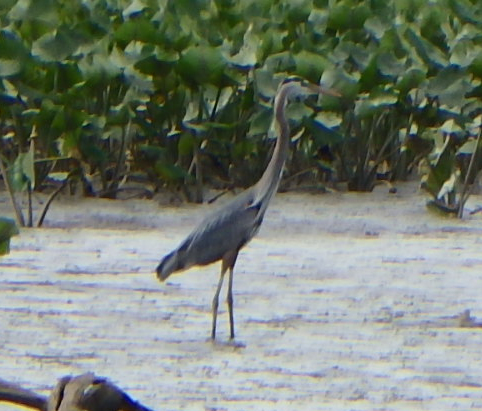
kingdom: Animalia
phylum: Chordata
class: Aves
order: Pelecaniformes
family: Ardeidae
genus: Ardea
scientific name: Ardea herodias
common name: Great blue heron
